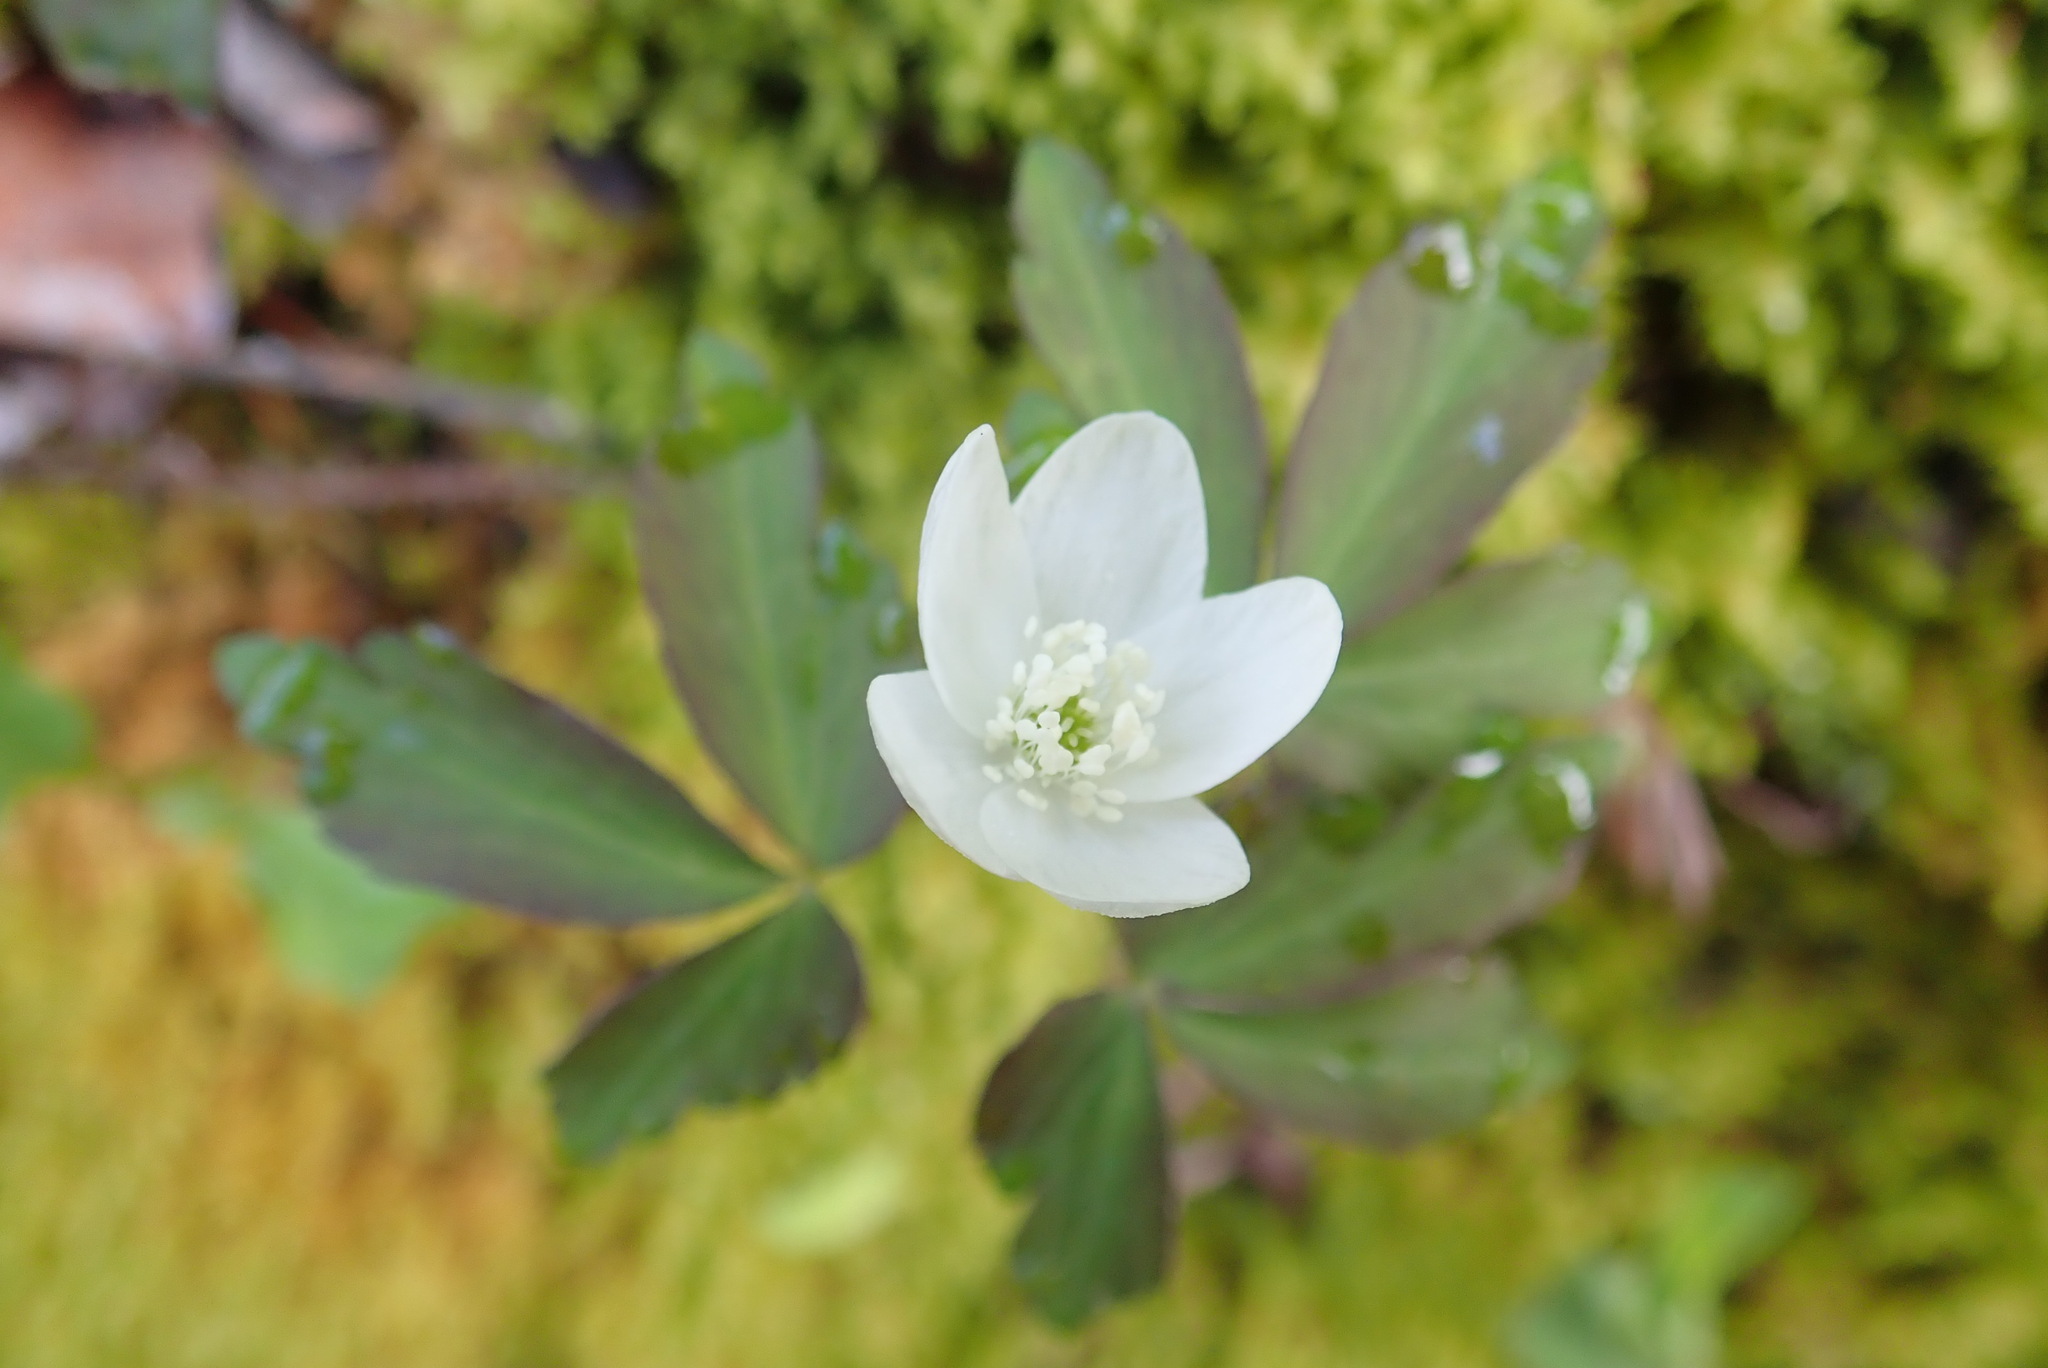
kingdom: Plantae
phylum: Tracheophyta
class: Magnoliopsida
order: Ranunculales
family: Ranunculaceae
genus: Anemone
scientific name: Anemone quinquefolia
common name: Wood anemone
